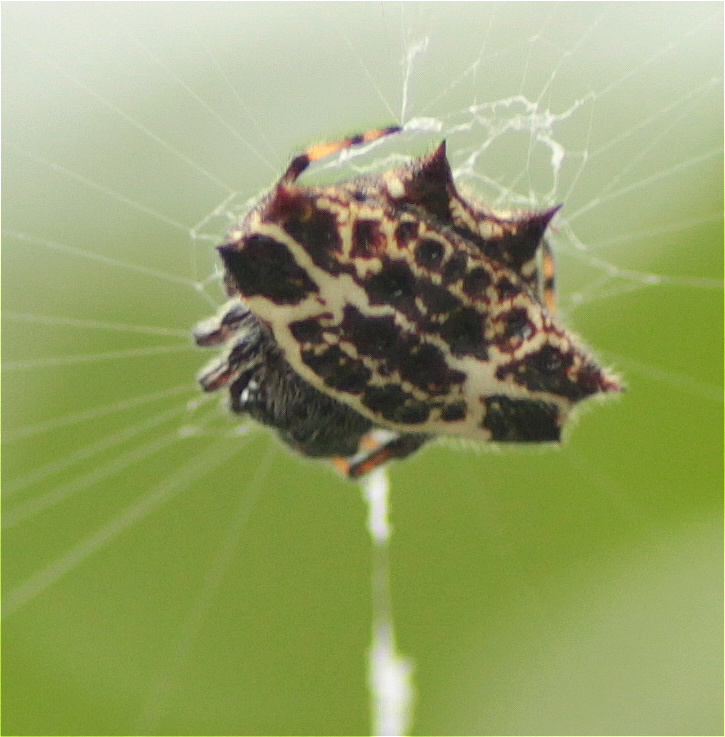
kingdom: Animalia
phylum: Arthropoda
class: Arachnida
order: Araneae
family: Araneidae
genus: Gasteracantha
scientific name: Gasteracantha cancriformis
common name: Orb weavers
